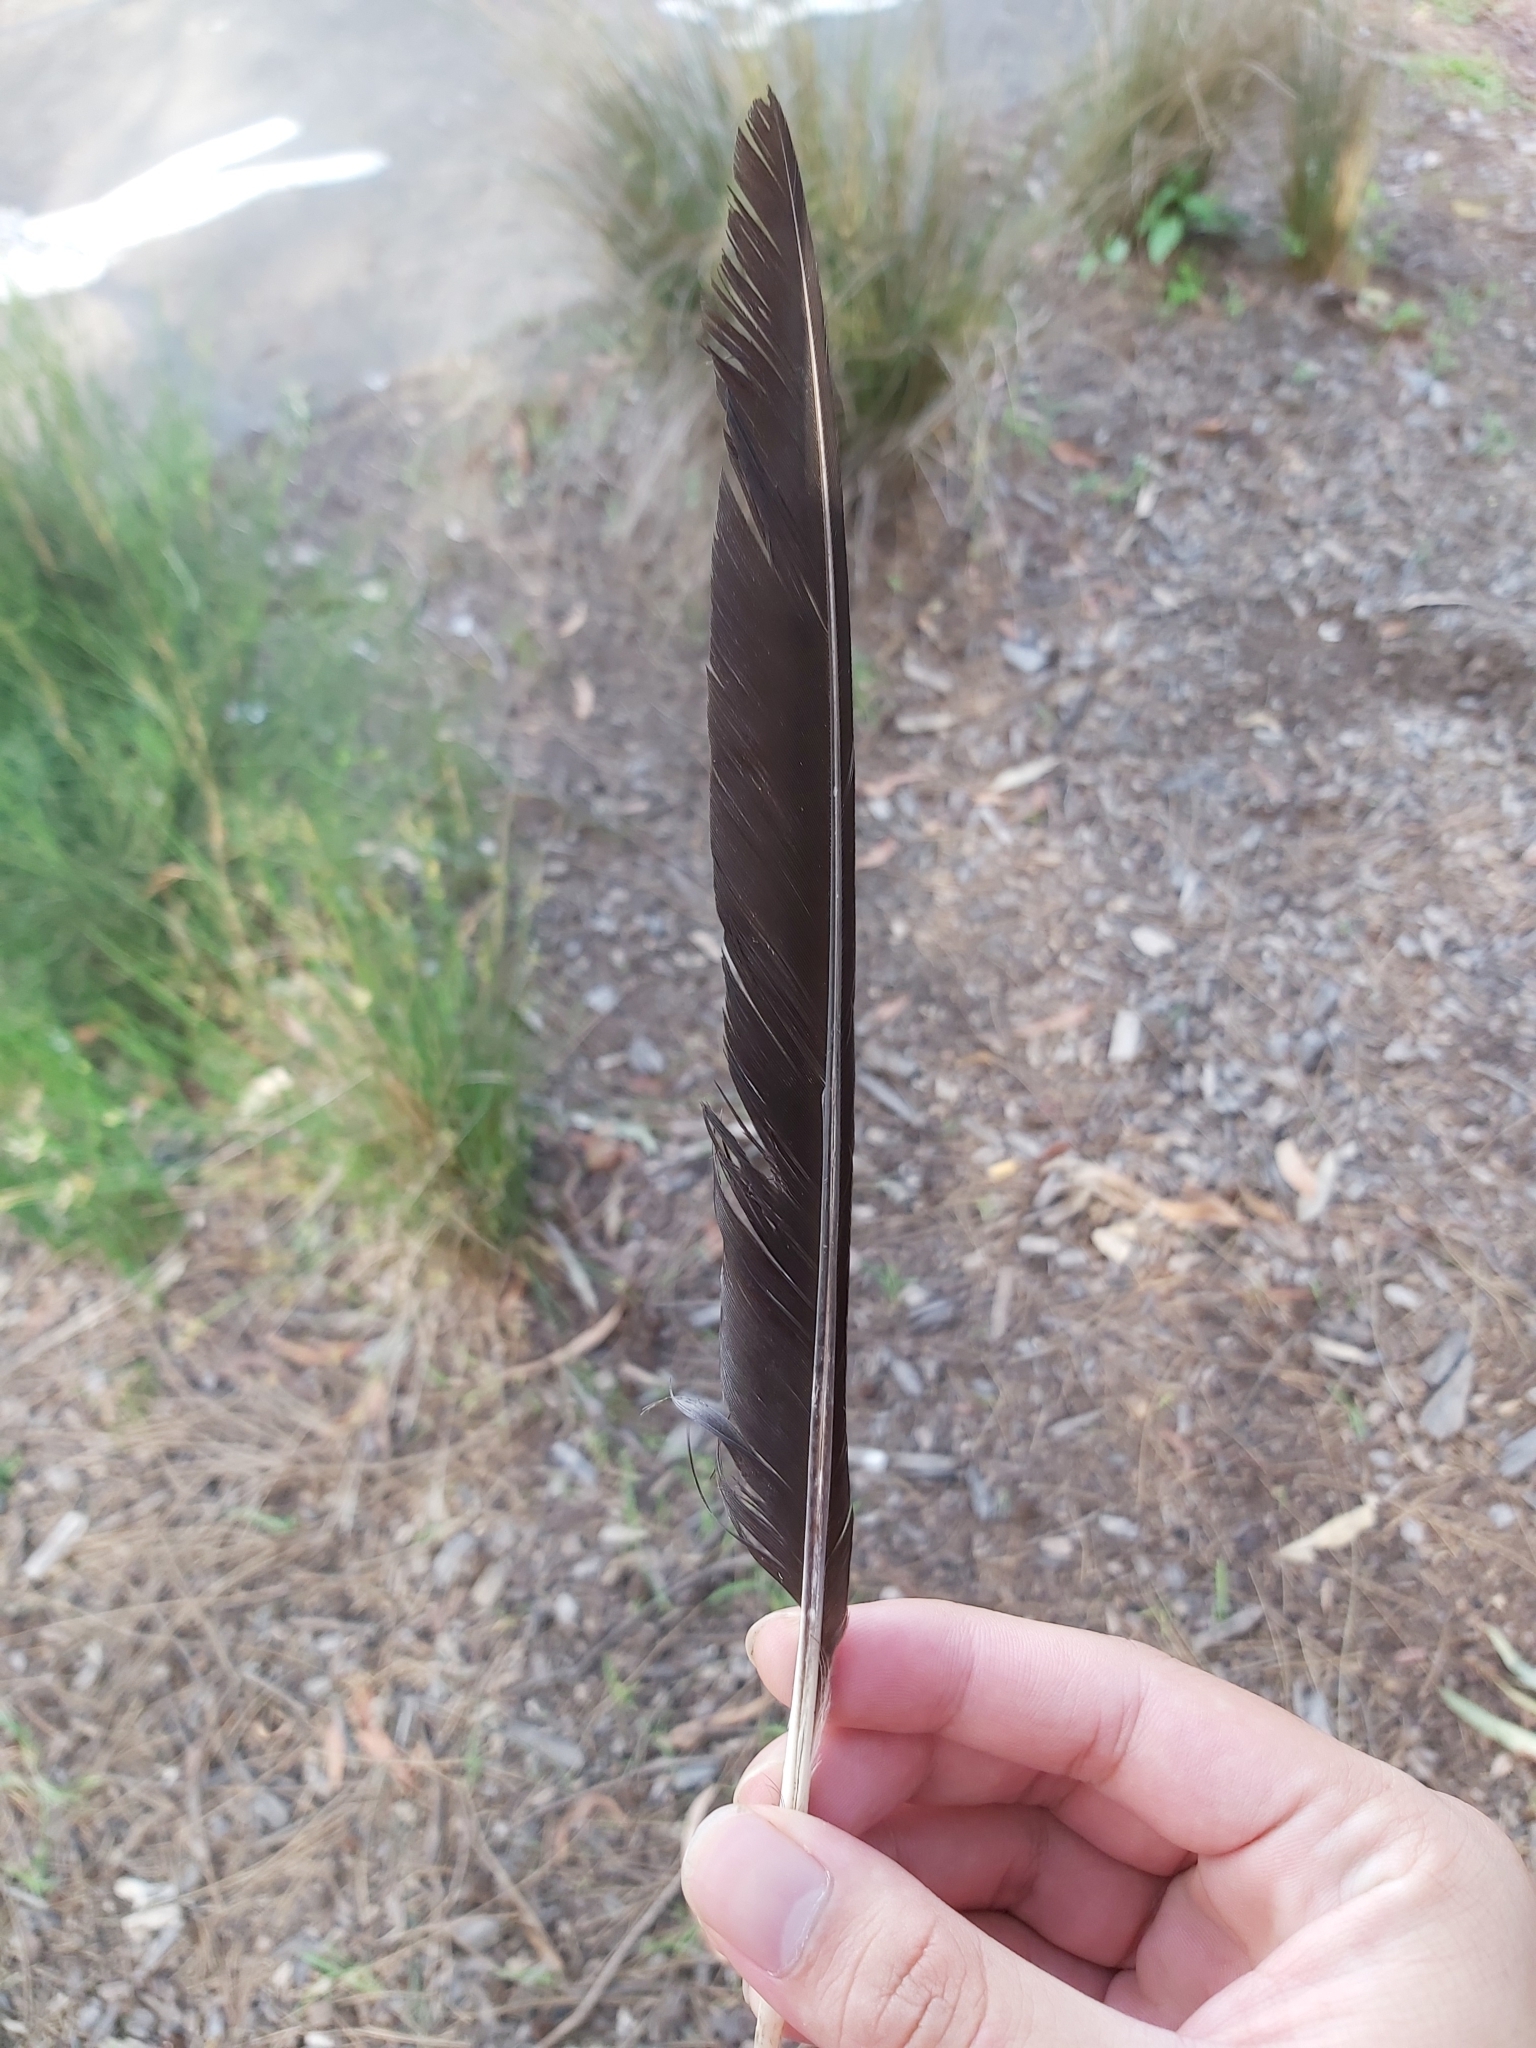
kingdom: Animalia
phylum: Chordata
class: Aves
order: Passeriformes
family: Cracticidae
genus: Gymnorhina
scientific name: Gymnorhina tibicen
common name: Australian magpie
